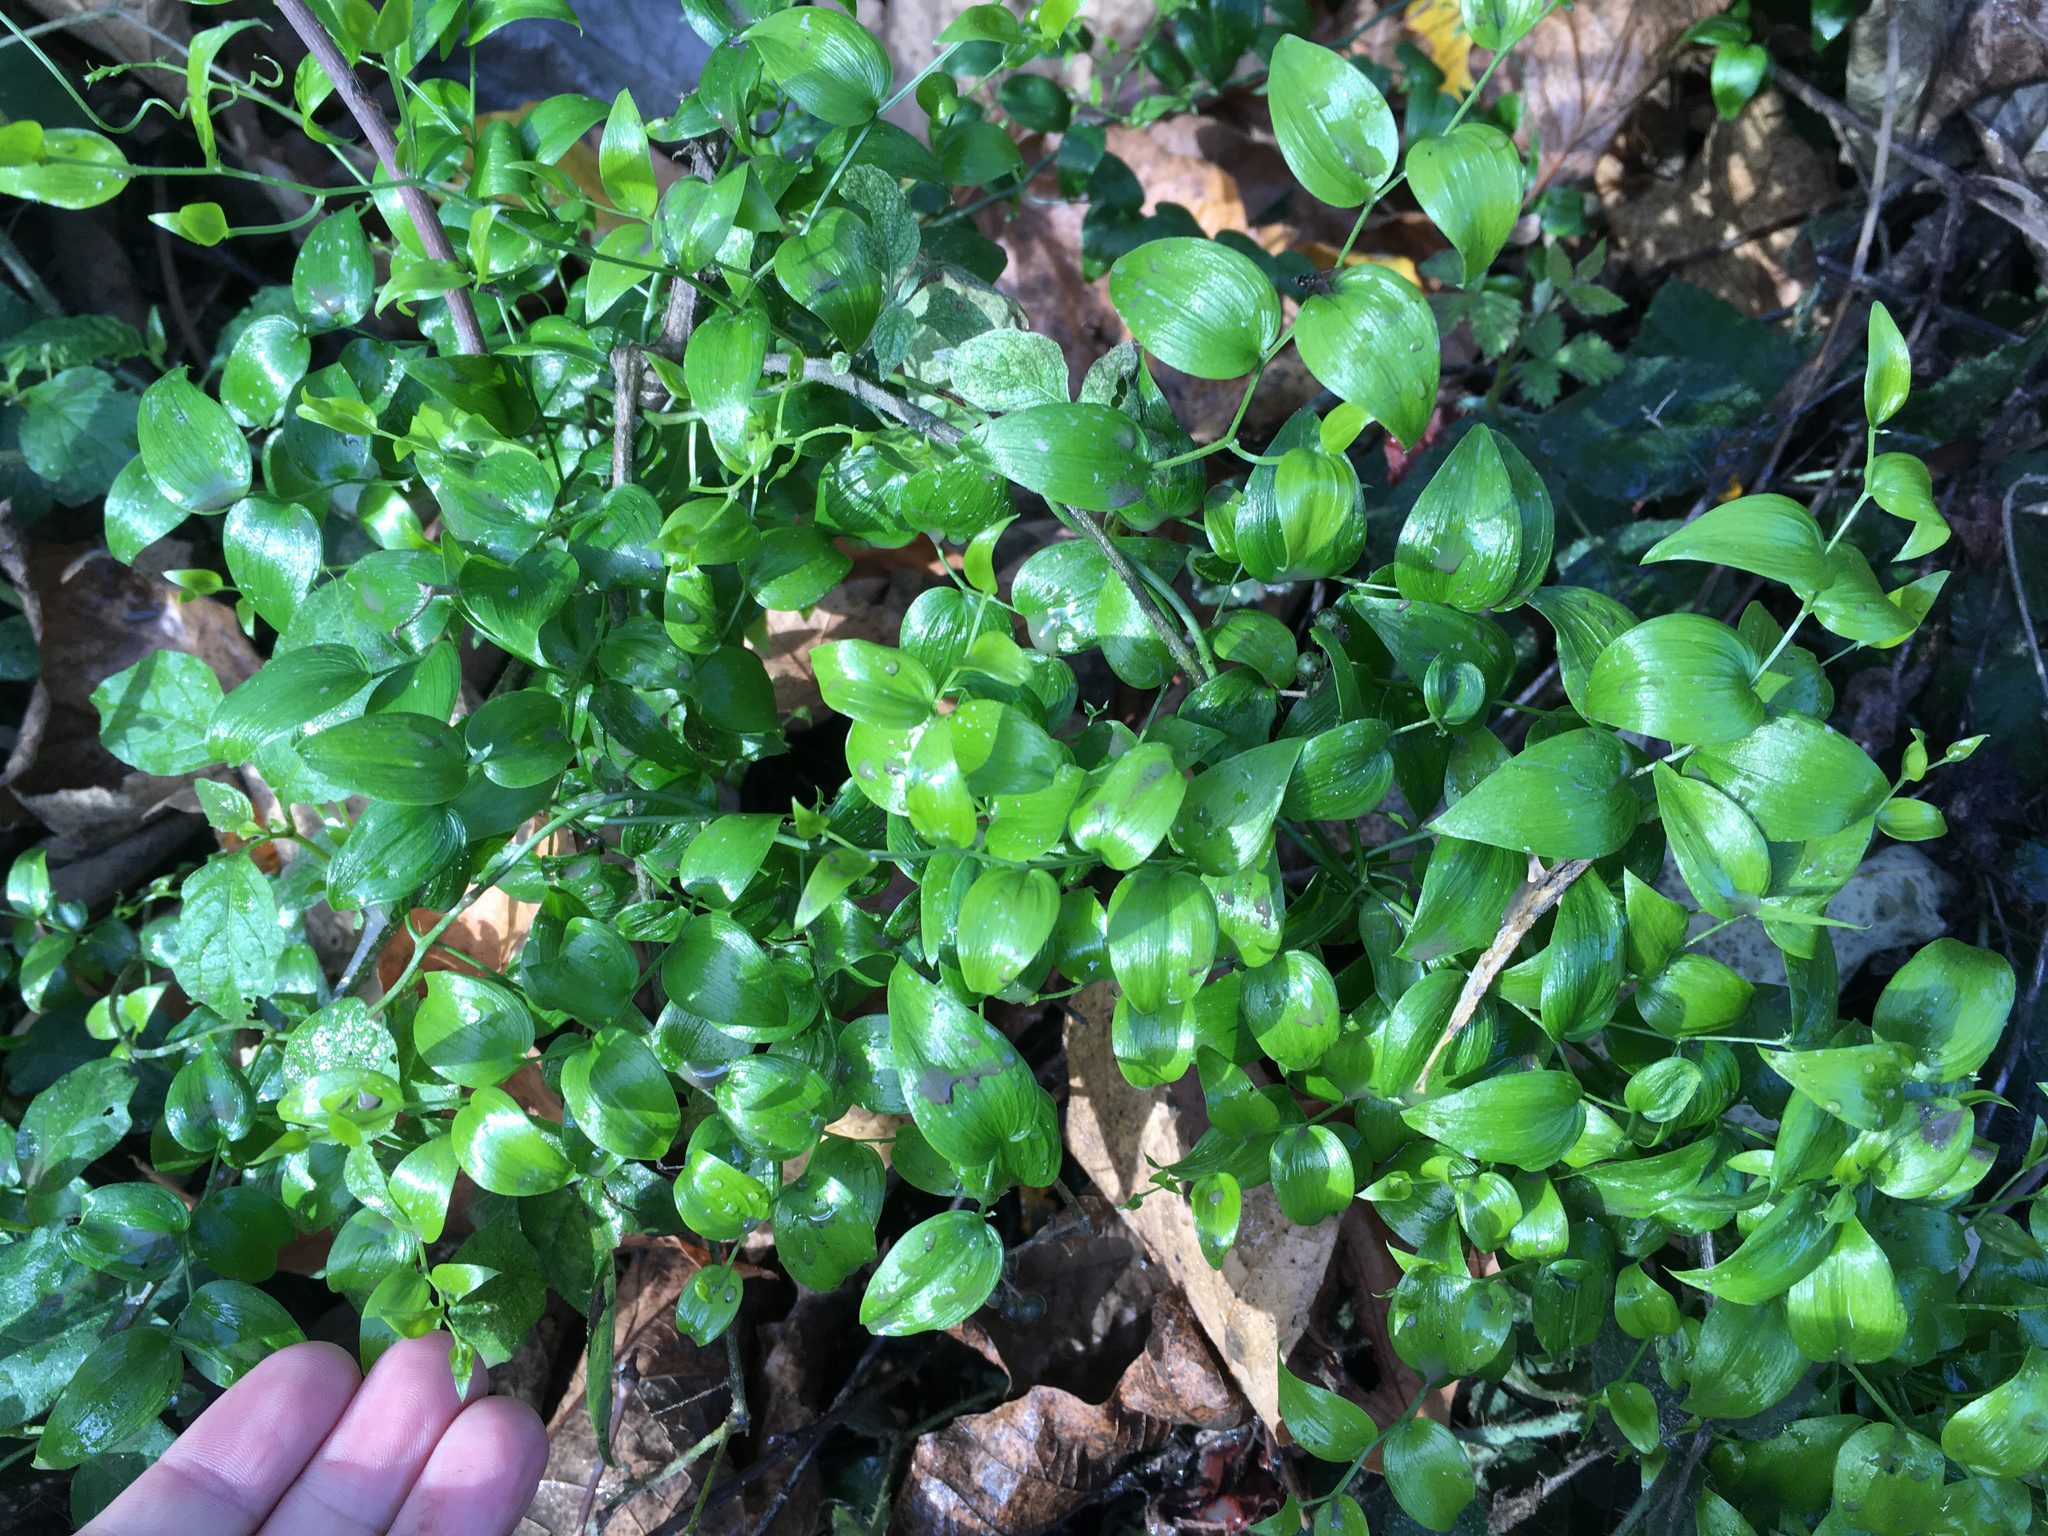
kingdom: Plantae
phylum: Tracheophyta
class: Liliopsida
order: Asparagales
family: Asparagaceae
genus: Asparagus
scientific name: Asparagus asparagoides
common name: African asparagus fern
